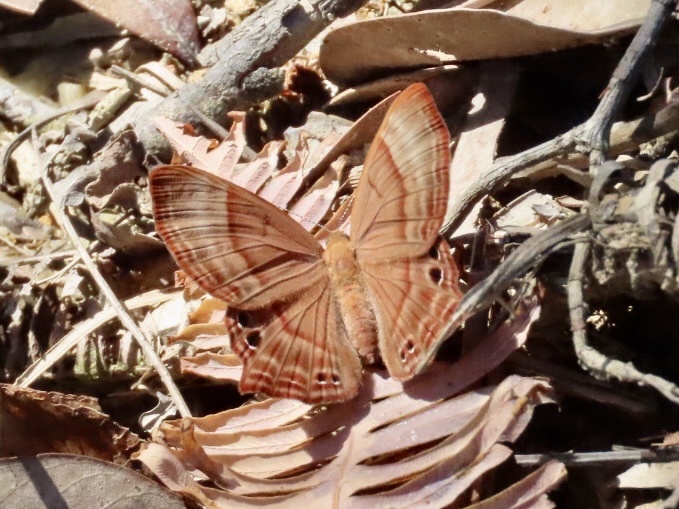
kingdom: Animalia
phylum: Arthropoda
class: Insecta
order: Lepidoptera
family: Lycaenidae
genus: Abisara
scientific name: Abisara echeria
